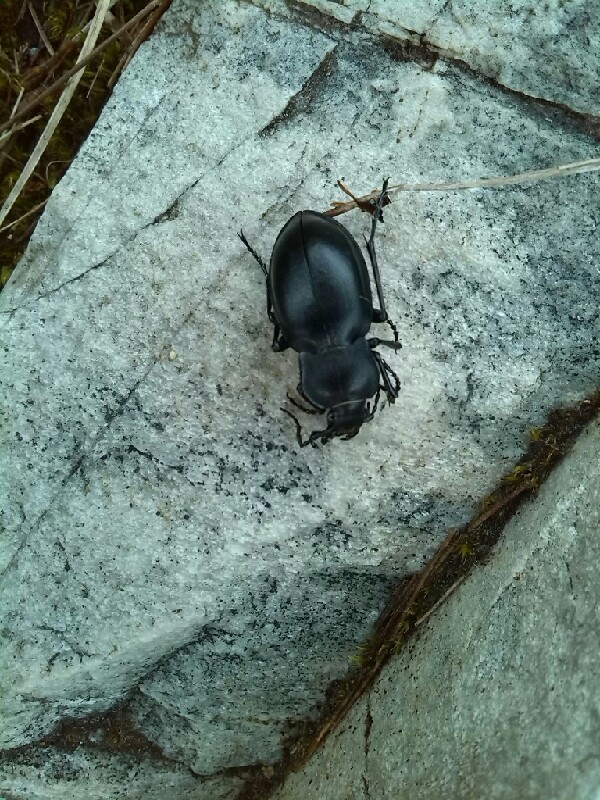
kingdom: Animalia
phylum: Arthropoda
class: Insecta
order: Coleoptera
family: Carabidae
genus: Carabus
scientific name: Carabus glabratus
